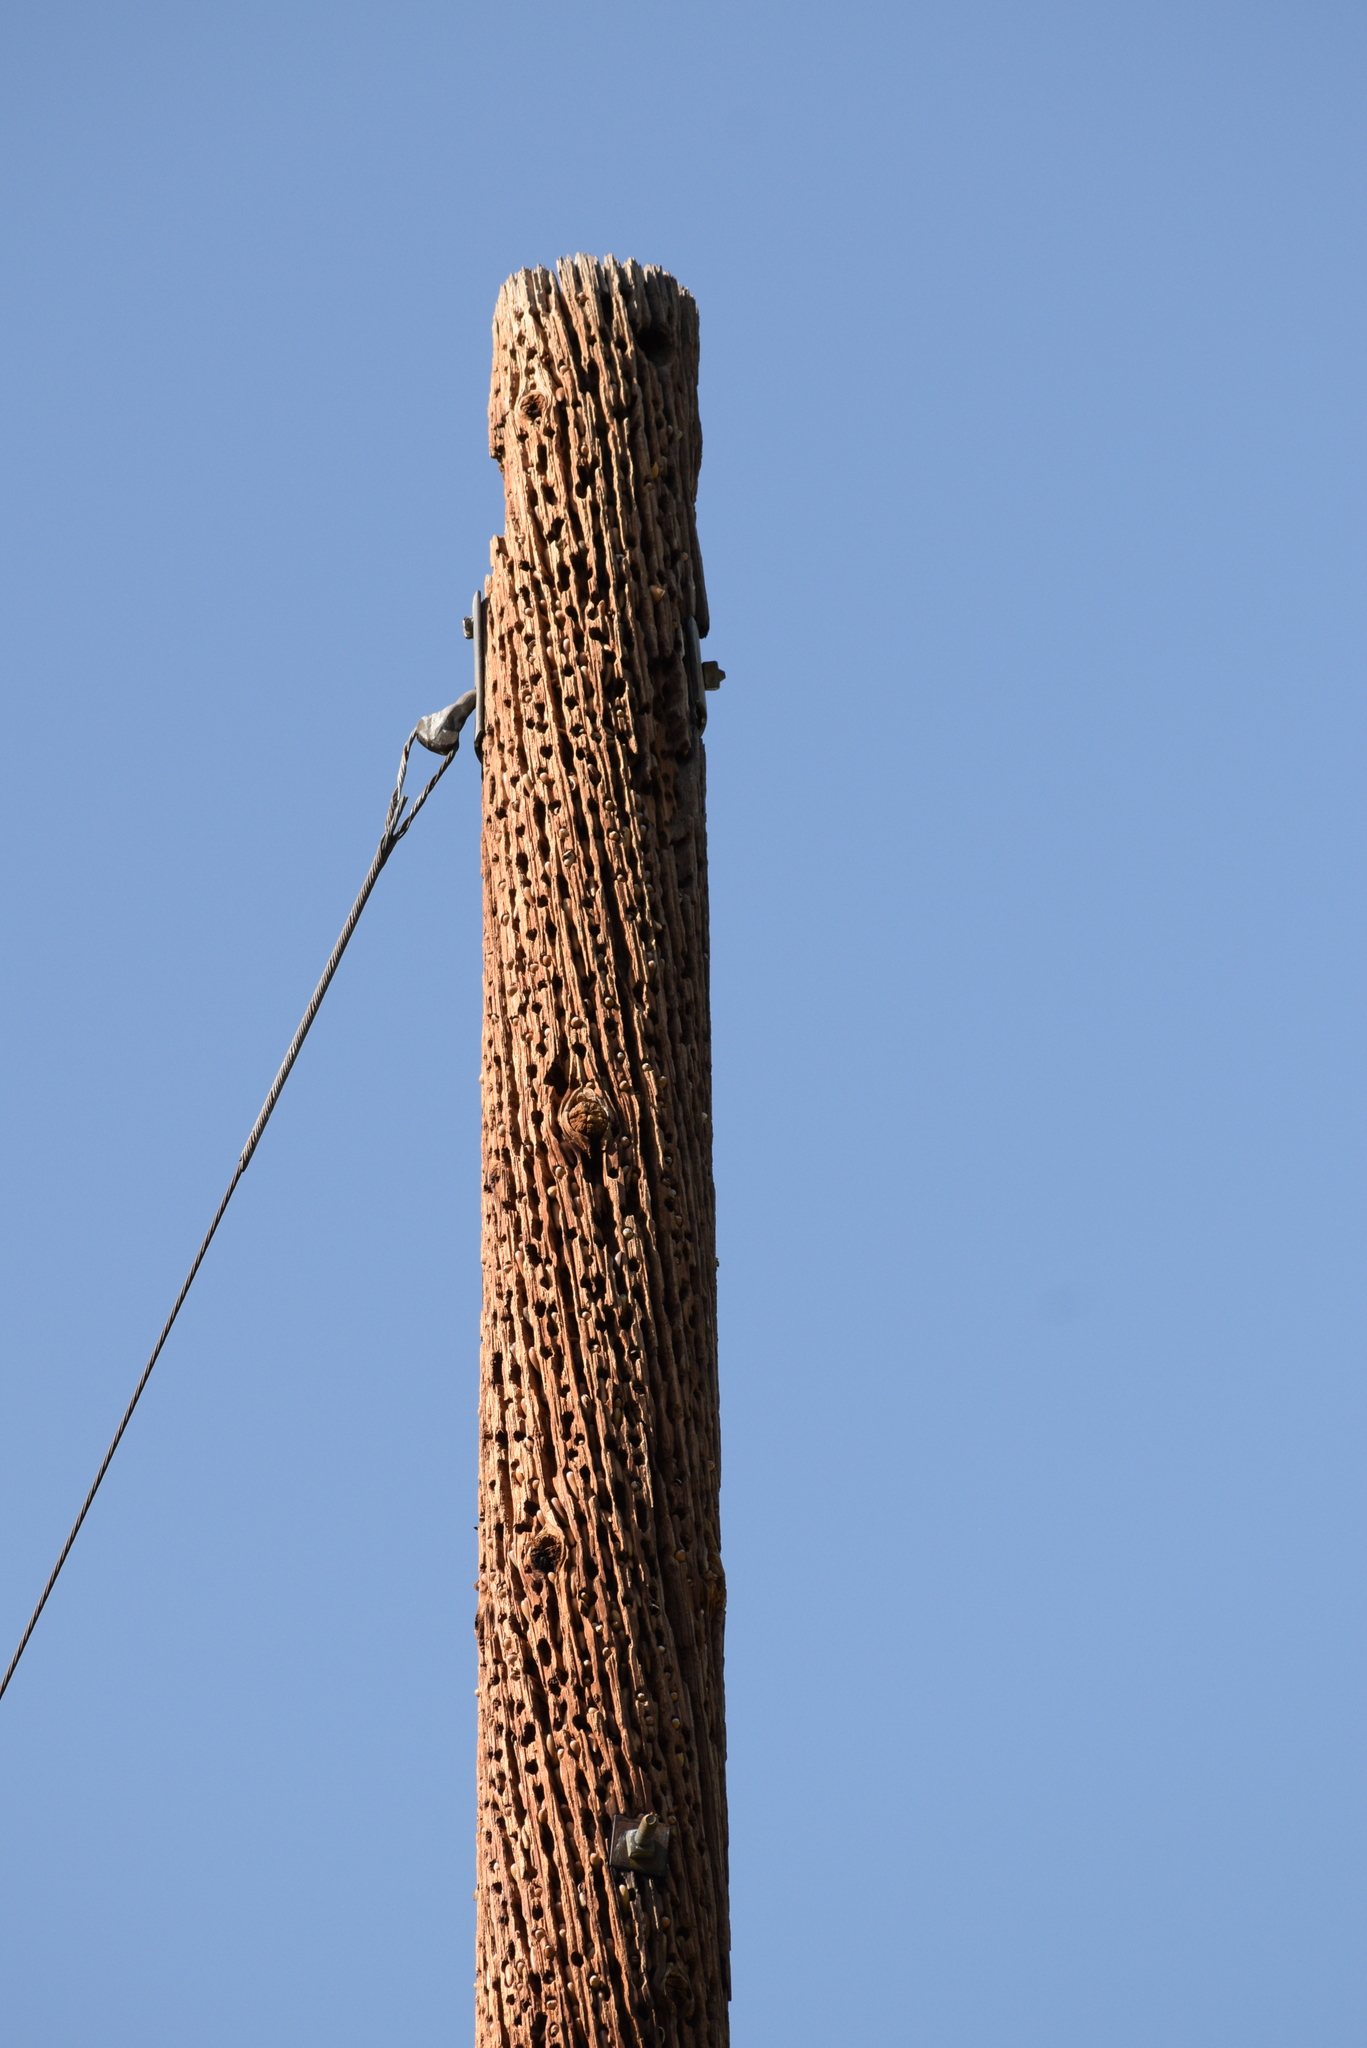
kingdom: Animalia
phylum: Chordata
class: Aves
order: Piciformes
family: Picidae
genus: Melanerpes
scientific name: Melanerpes formicivorus
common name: Acorn woodpecker
